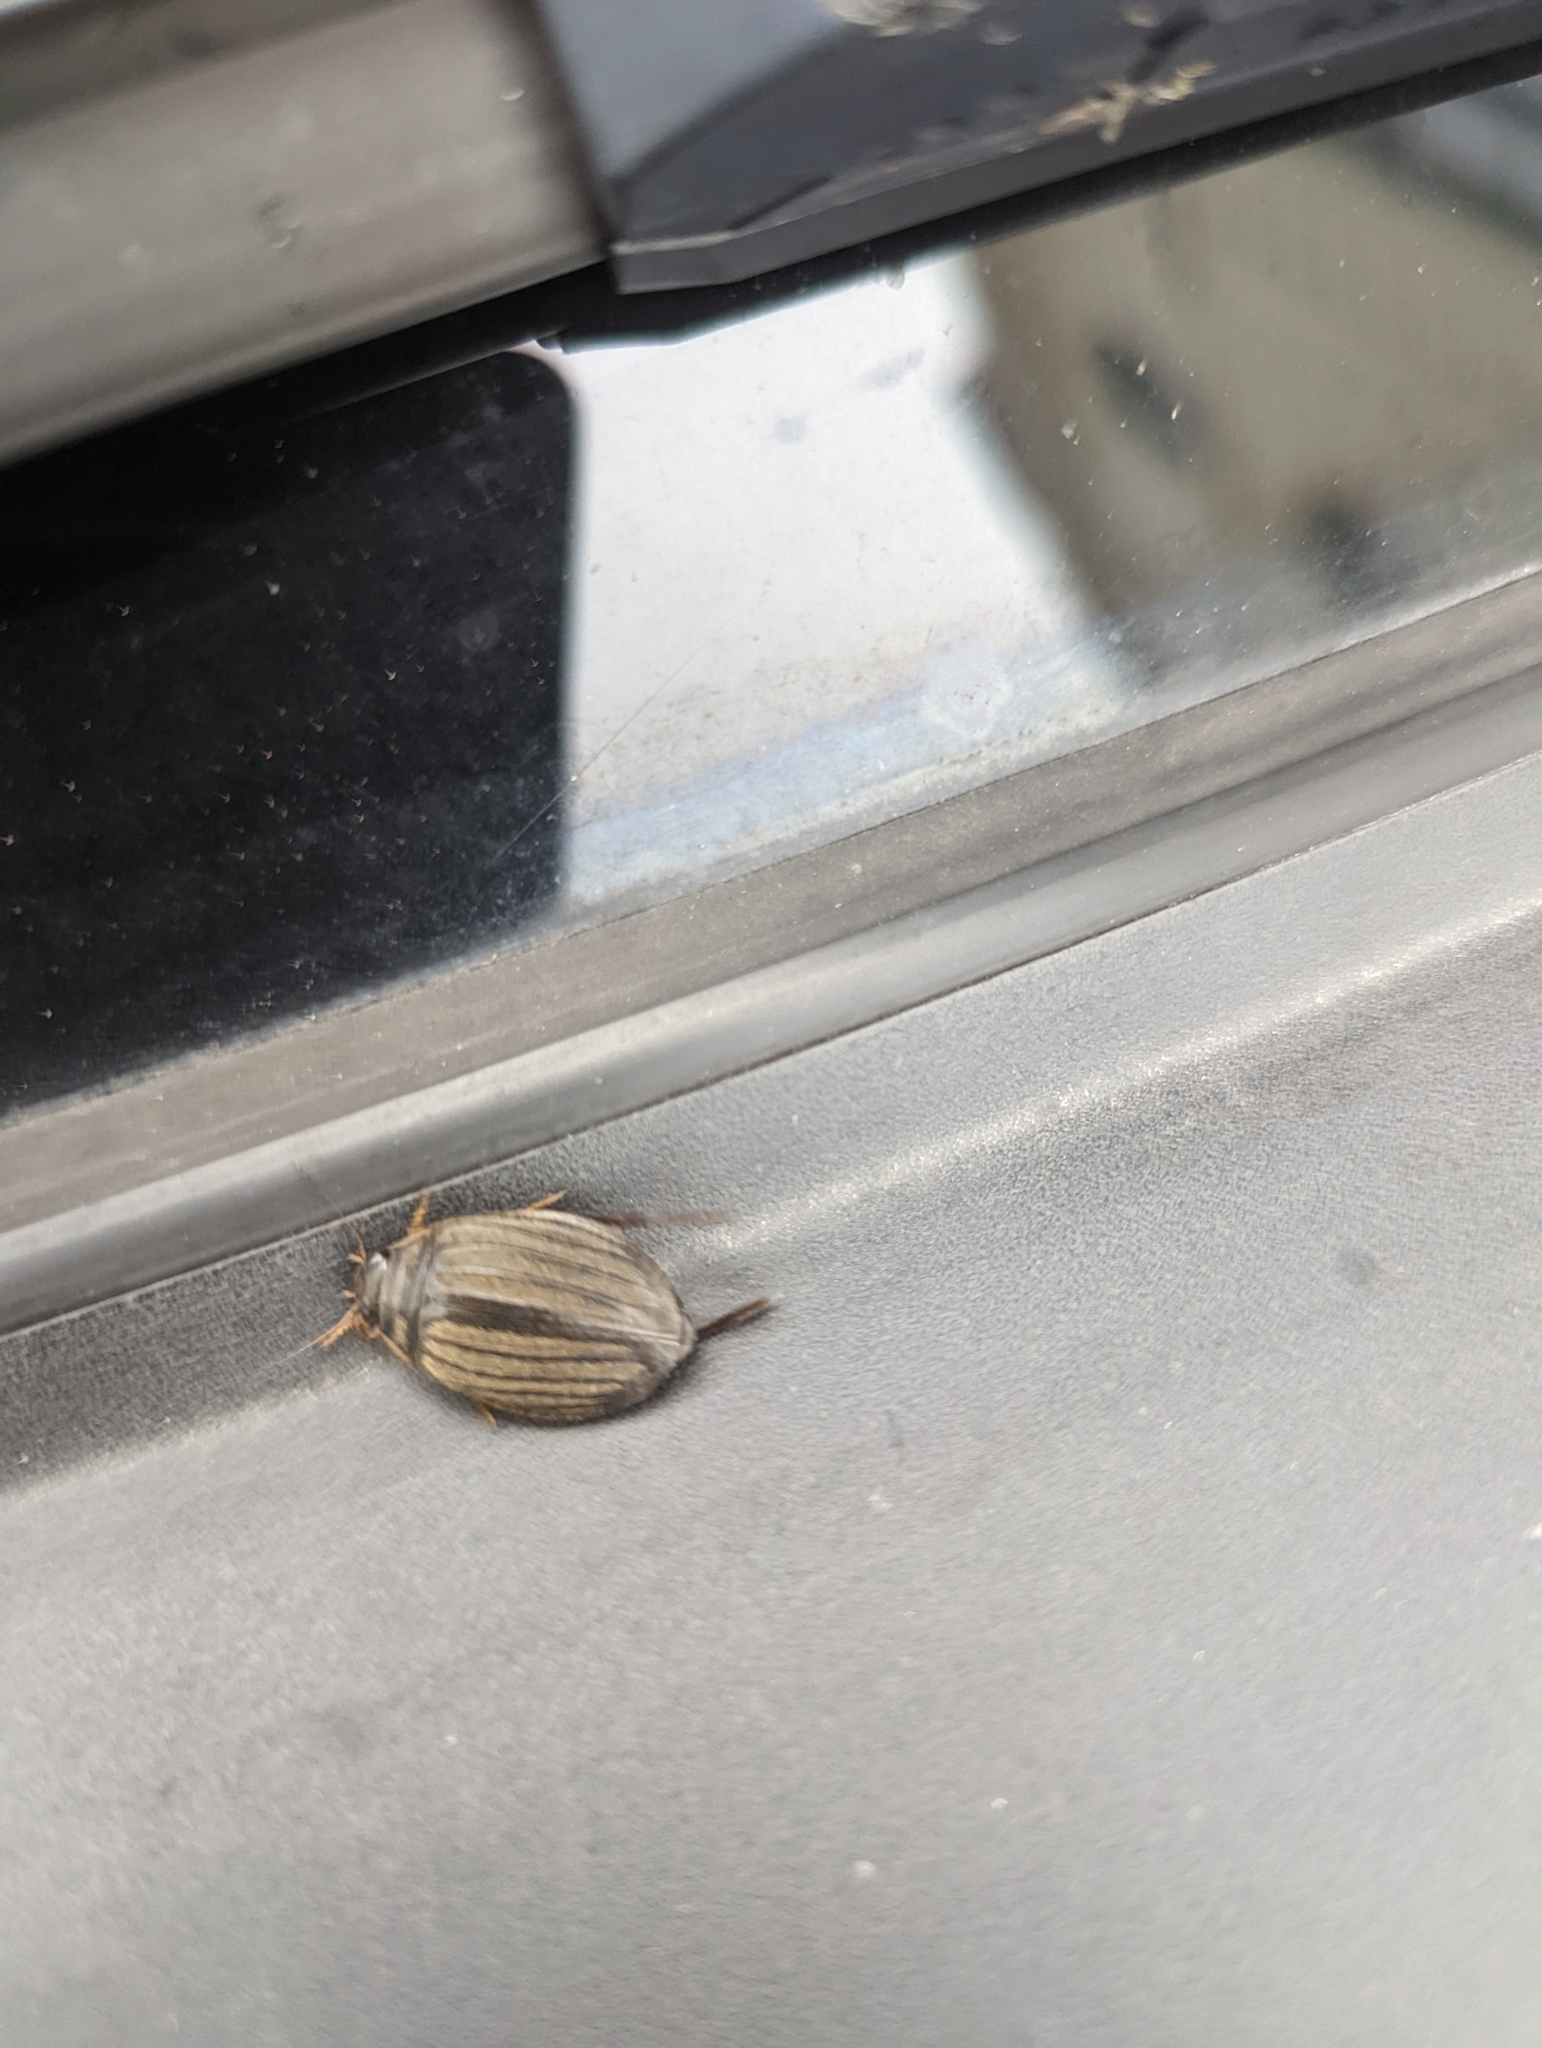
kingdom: Animalia
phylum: Arthropoda
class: Insecta
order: Coleoptera
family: Dytiscidae
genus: Acilius
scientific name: Acilius sulcatus
